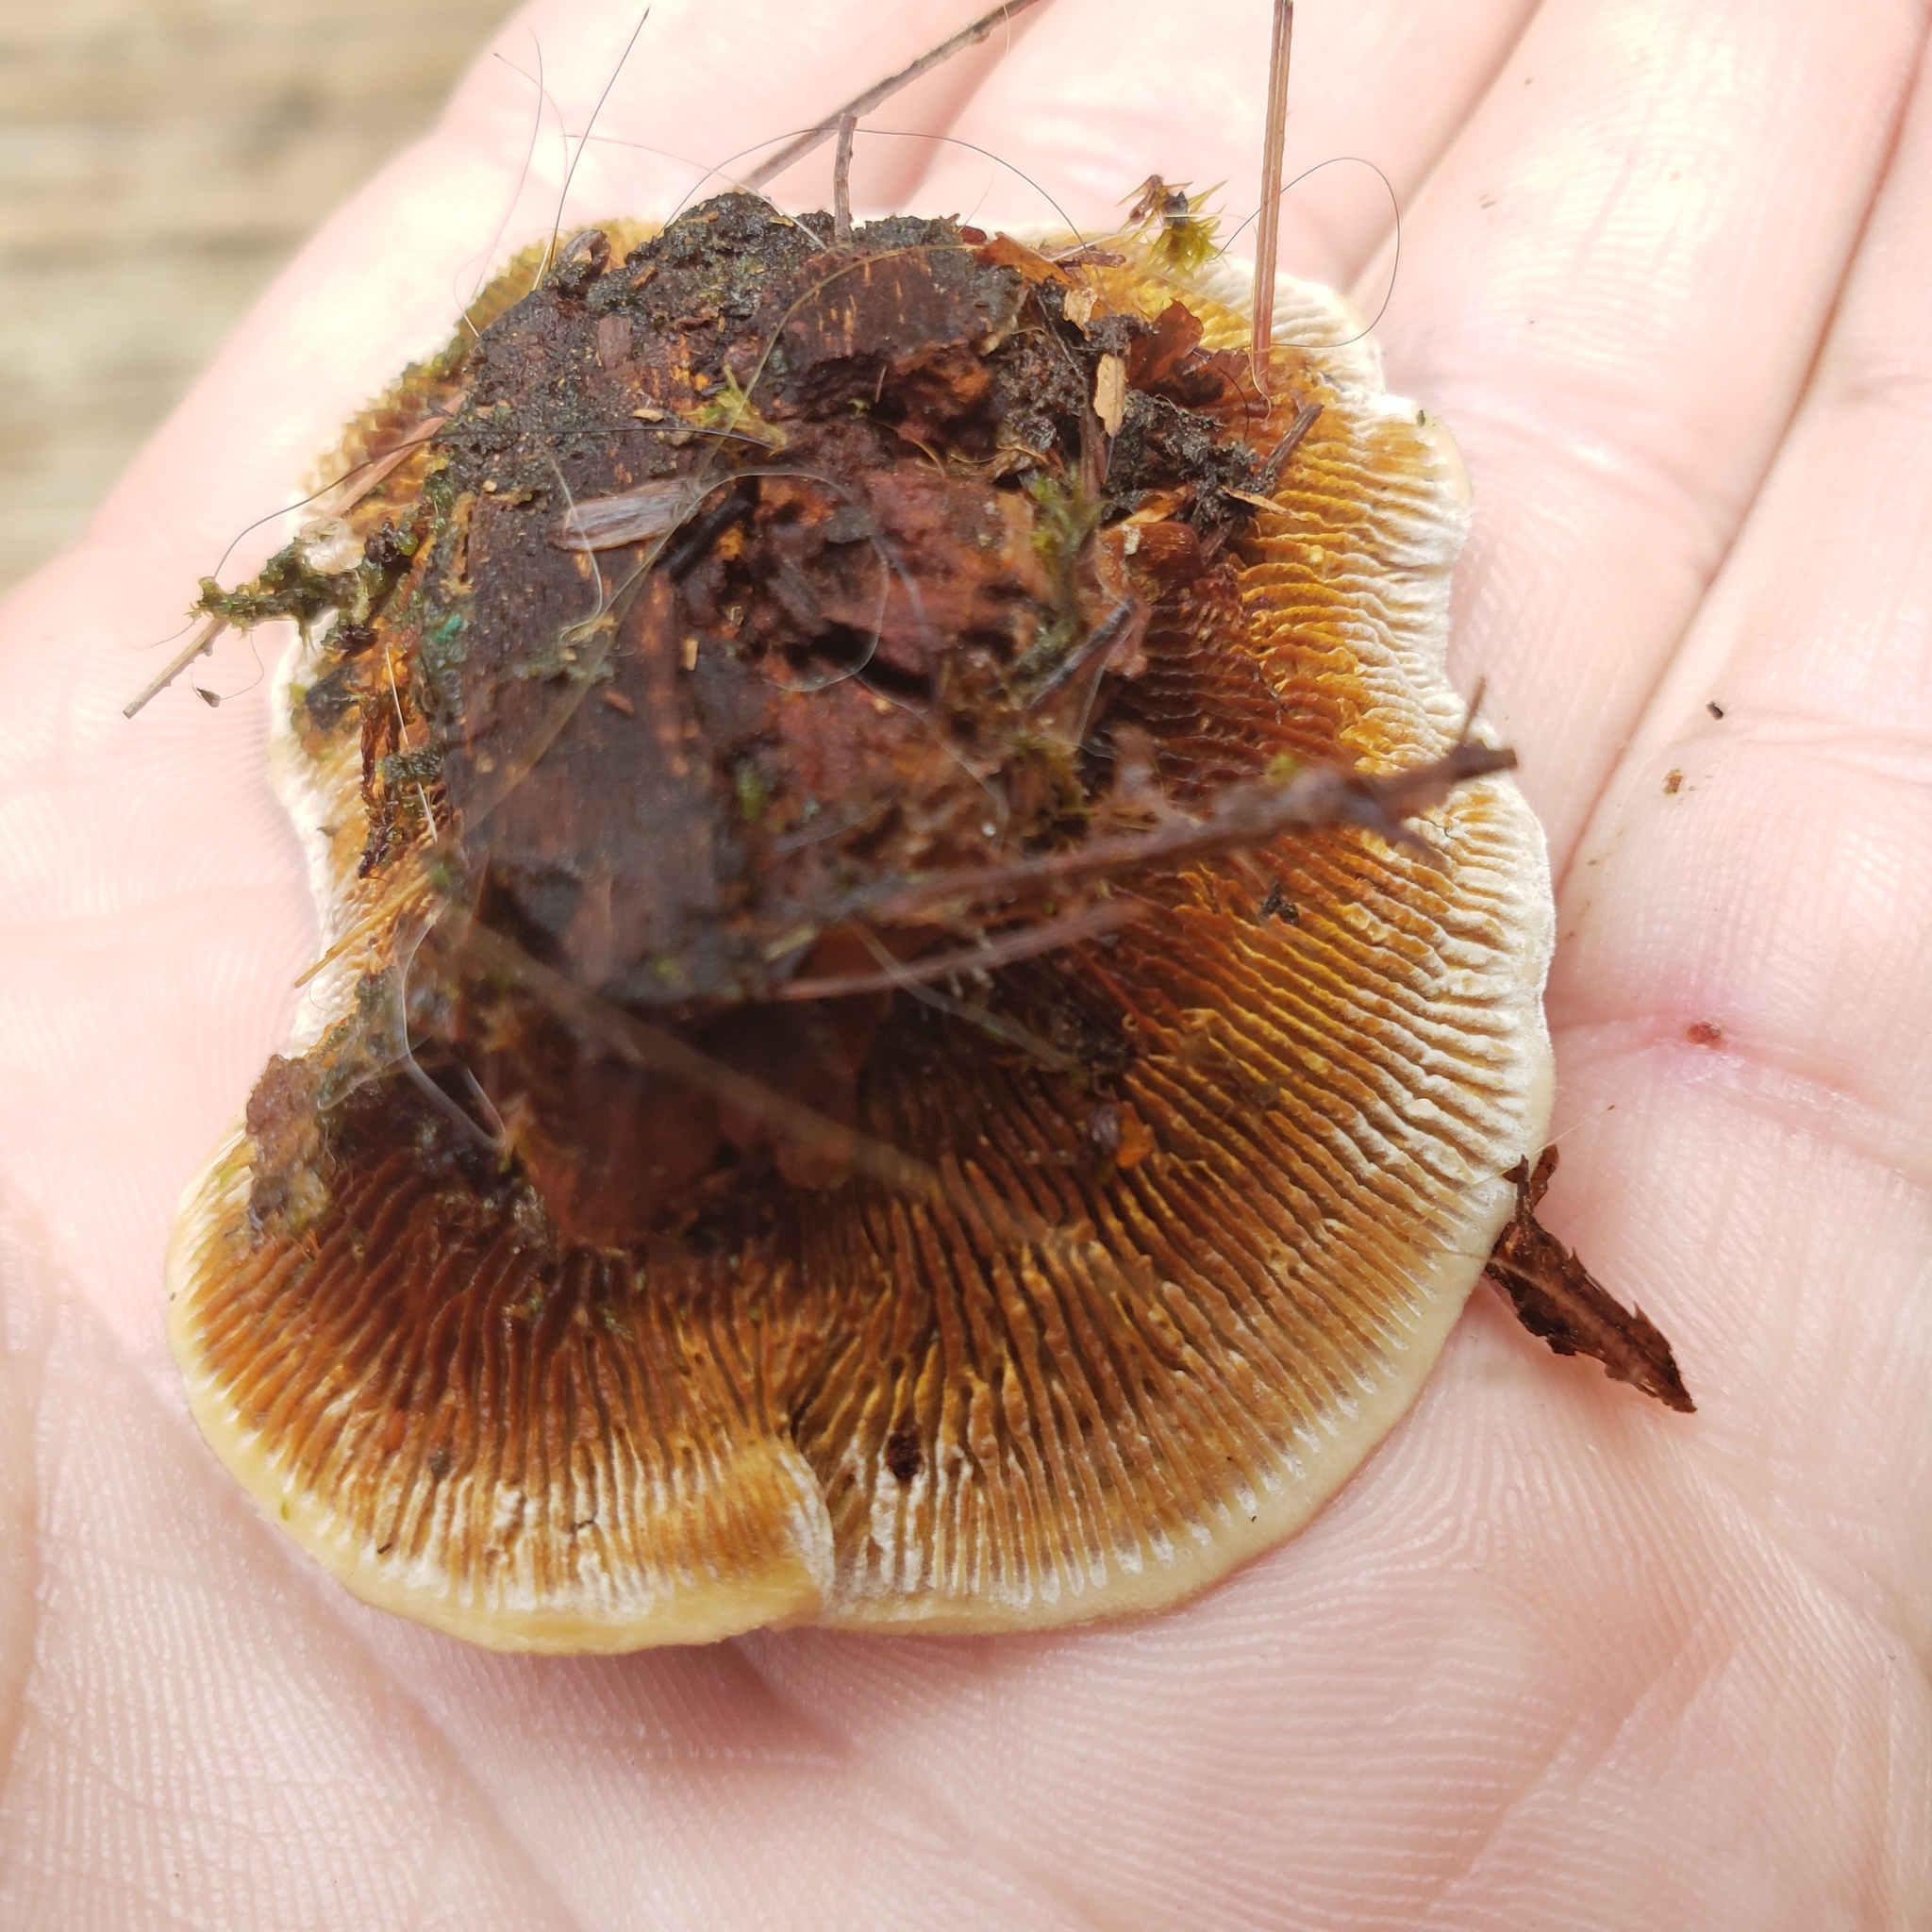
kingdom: Fungi
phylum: Basidiomycota
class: Agaricomycetes
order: Gloeophyllales
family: Gloeophyllaceae
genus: Gloeophyllum
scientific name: Gloeophyllum sepiarium
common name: Conifer mazegill
